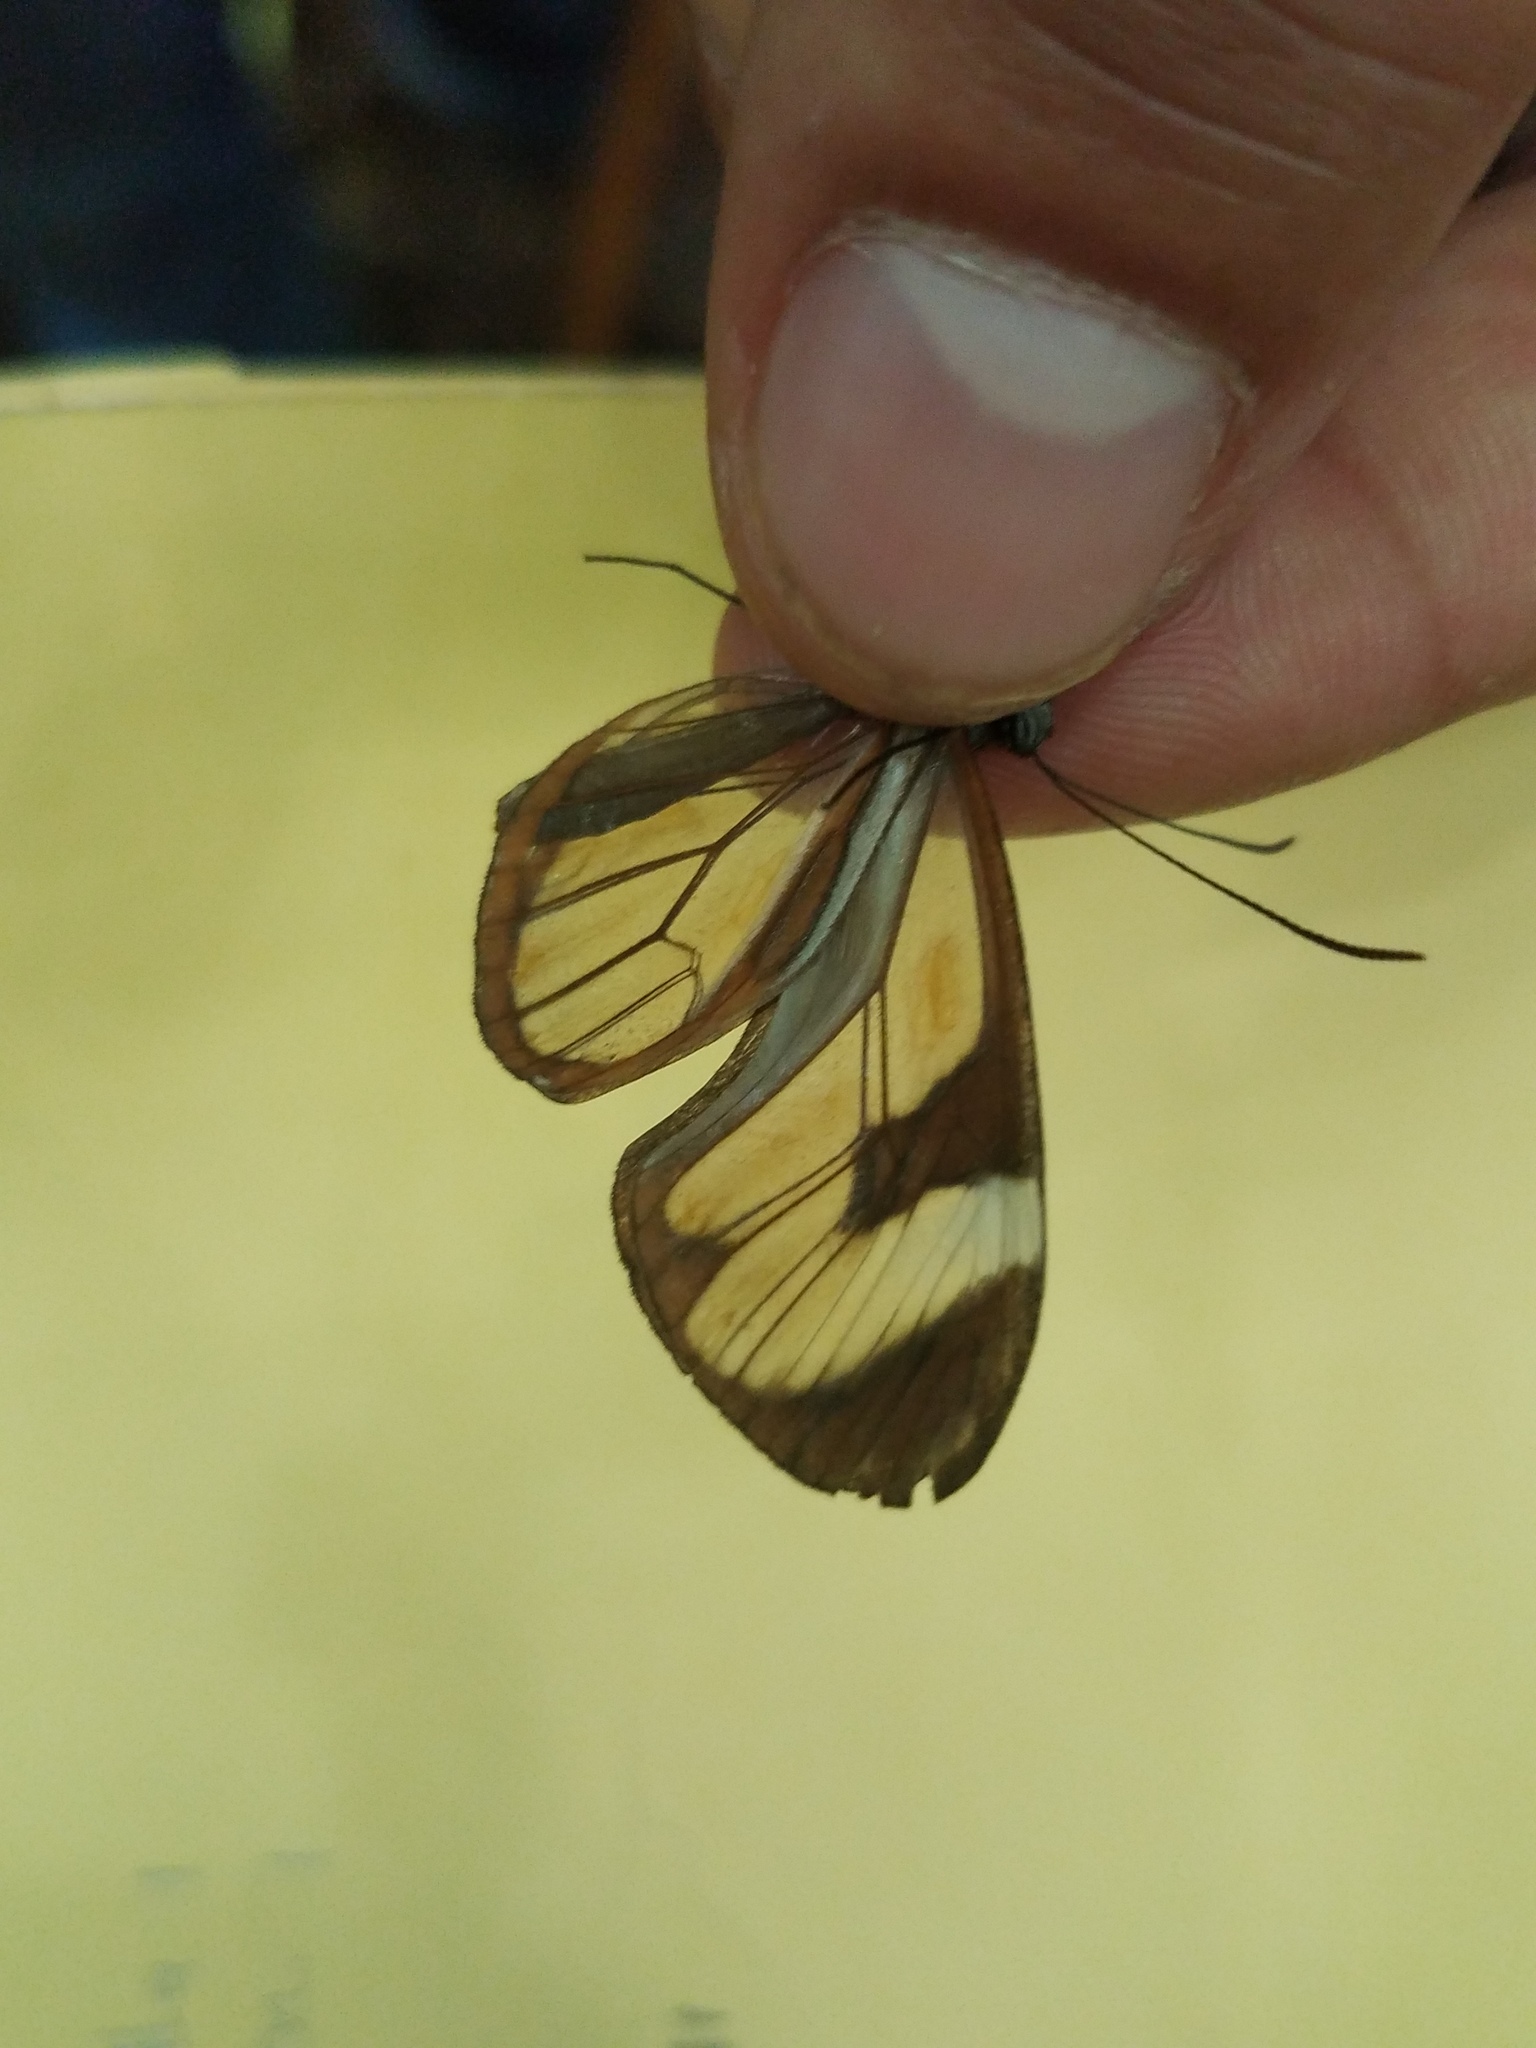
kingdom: Animalia
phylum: Arthropoda
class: Insecta
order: Lepidoptera
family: Nymphalidae
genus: Ithomia
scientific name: Ithomia patilla
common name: Patilla clearwing
